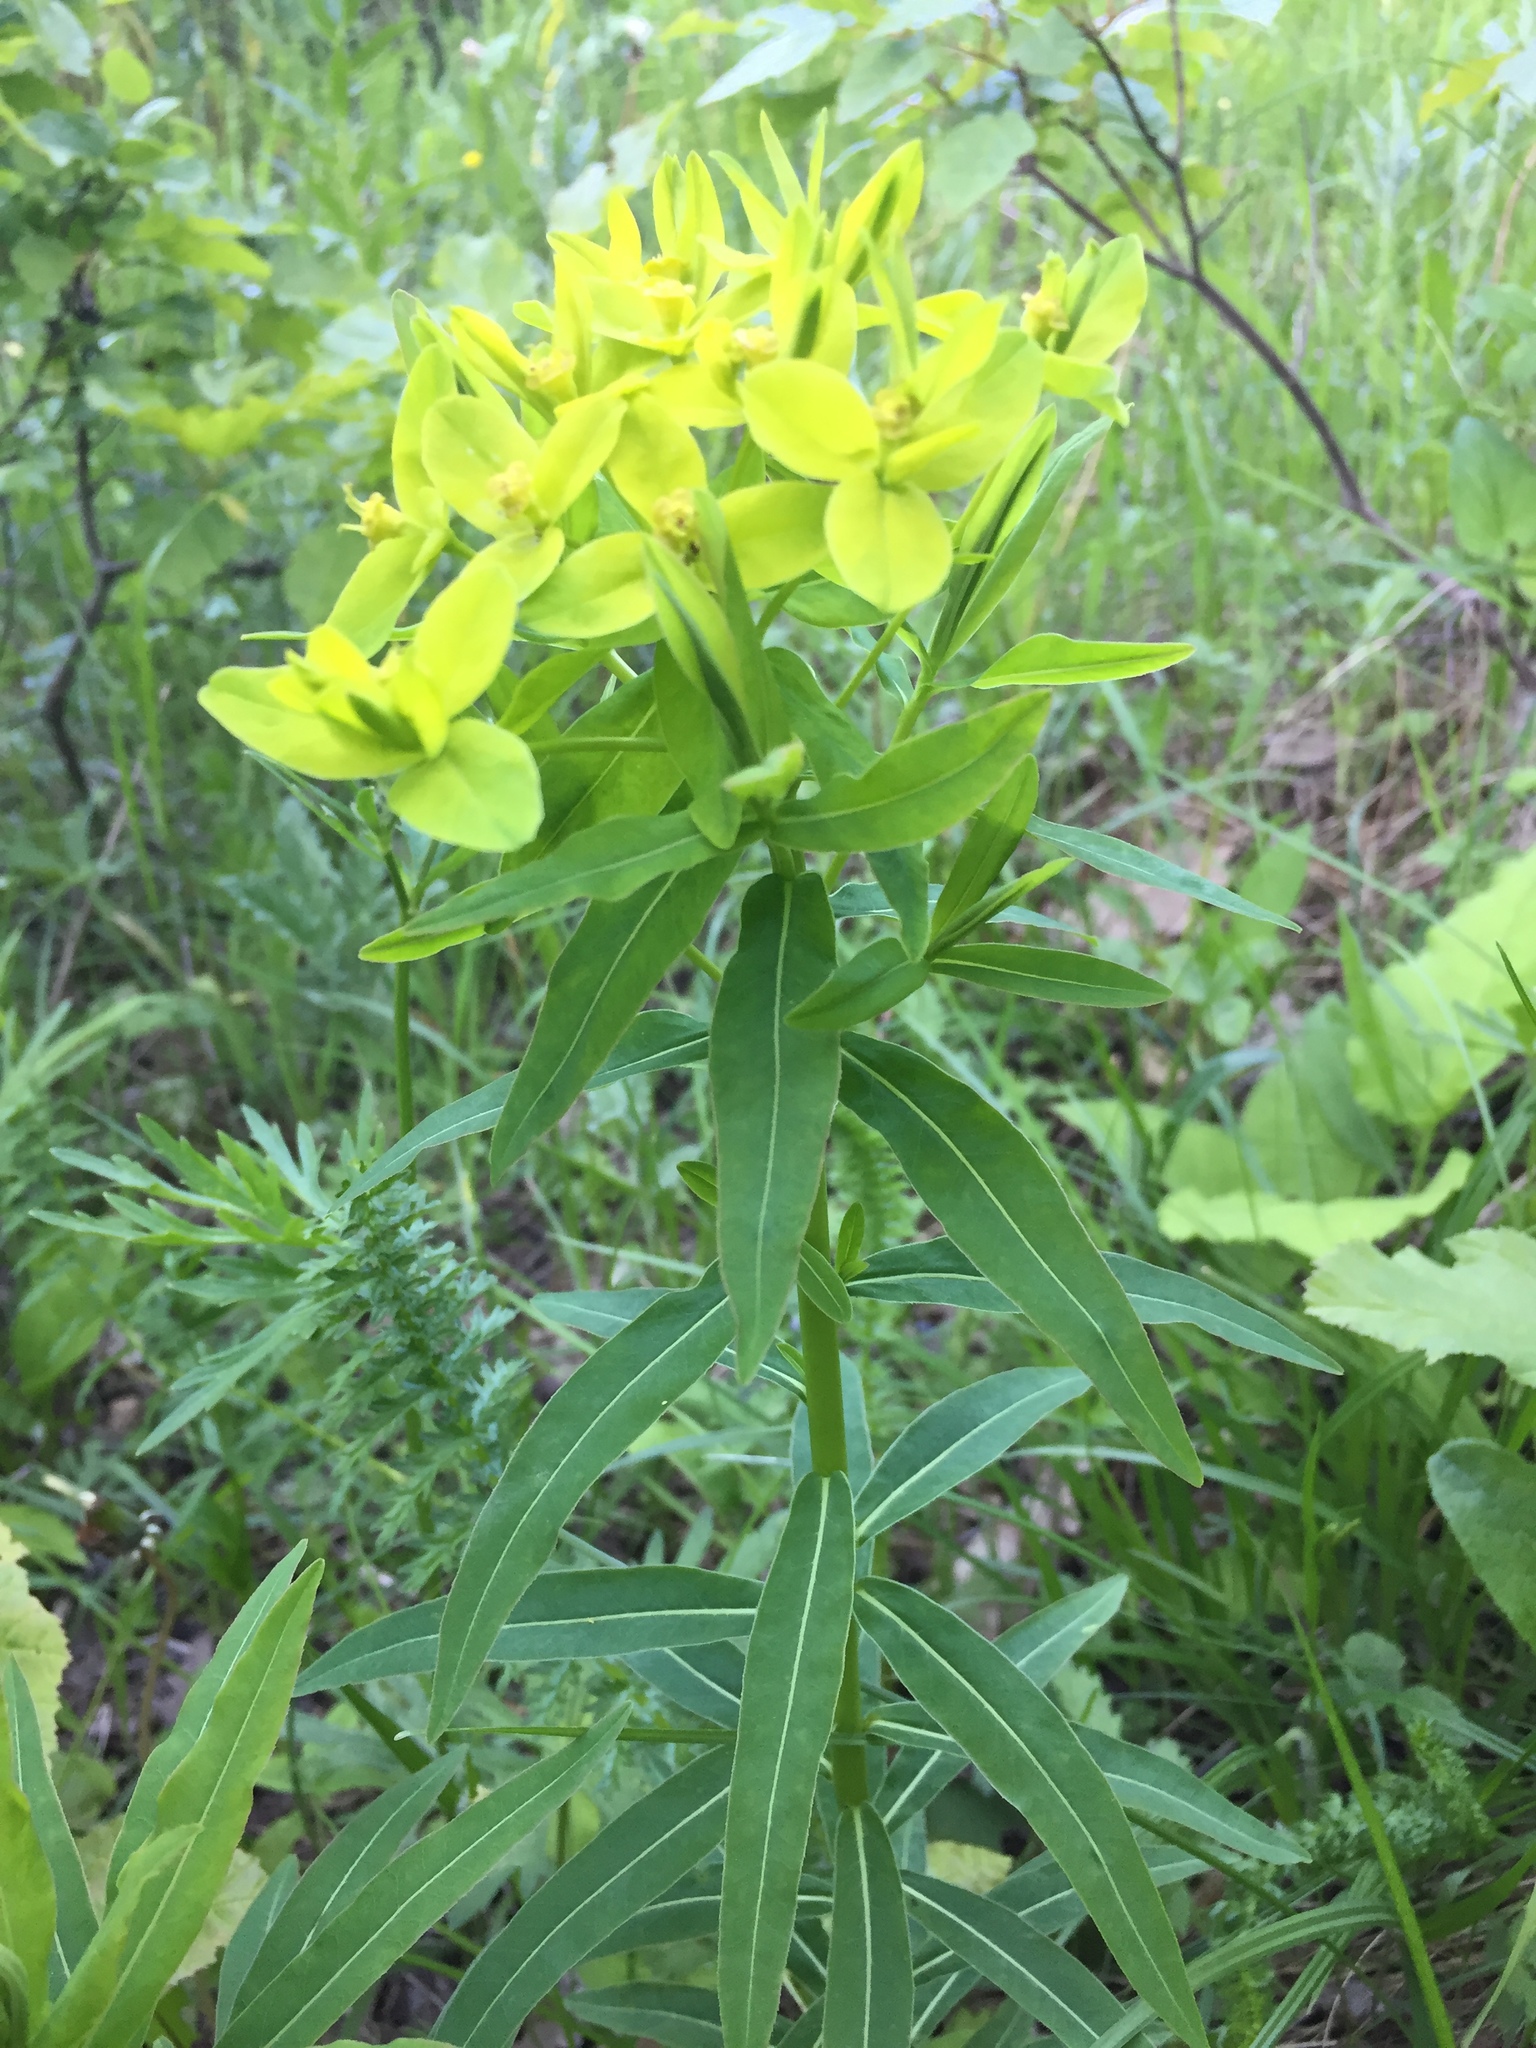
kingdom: Plantae
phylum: Tracheophyta
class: Magnoliopsida
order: Malpighiales
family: Euphorbiaceae
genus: Euphorbia
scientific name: Euphorbia virgata
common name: Leafy spurge
